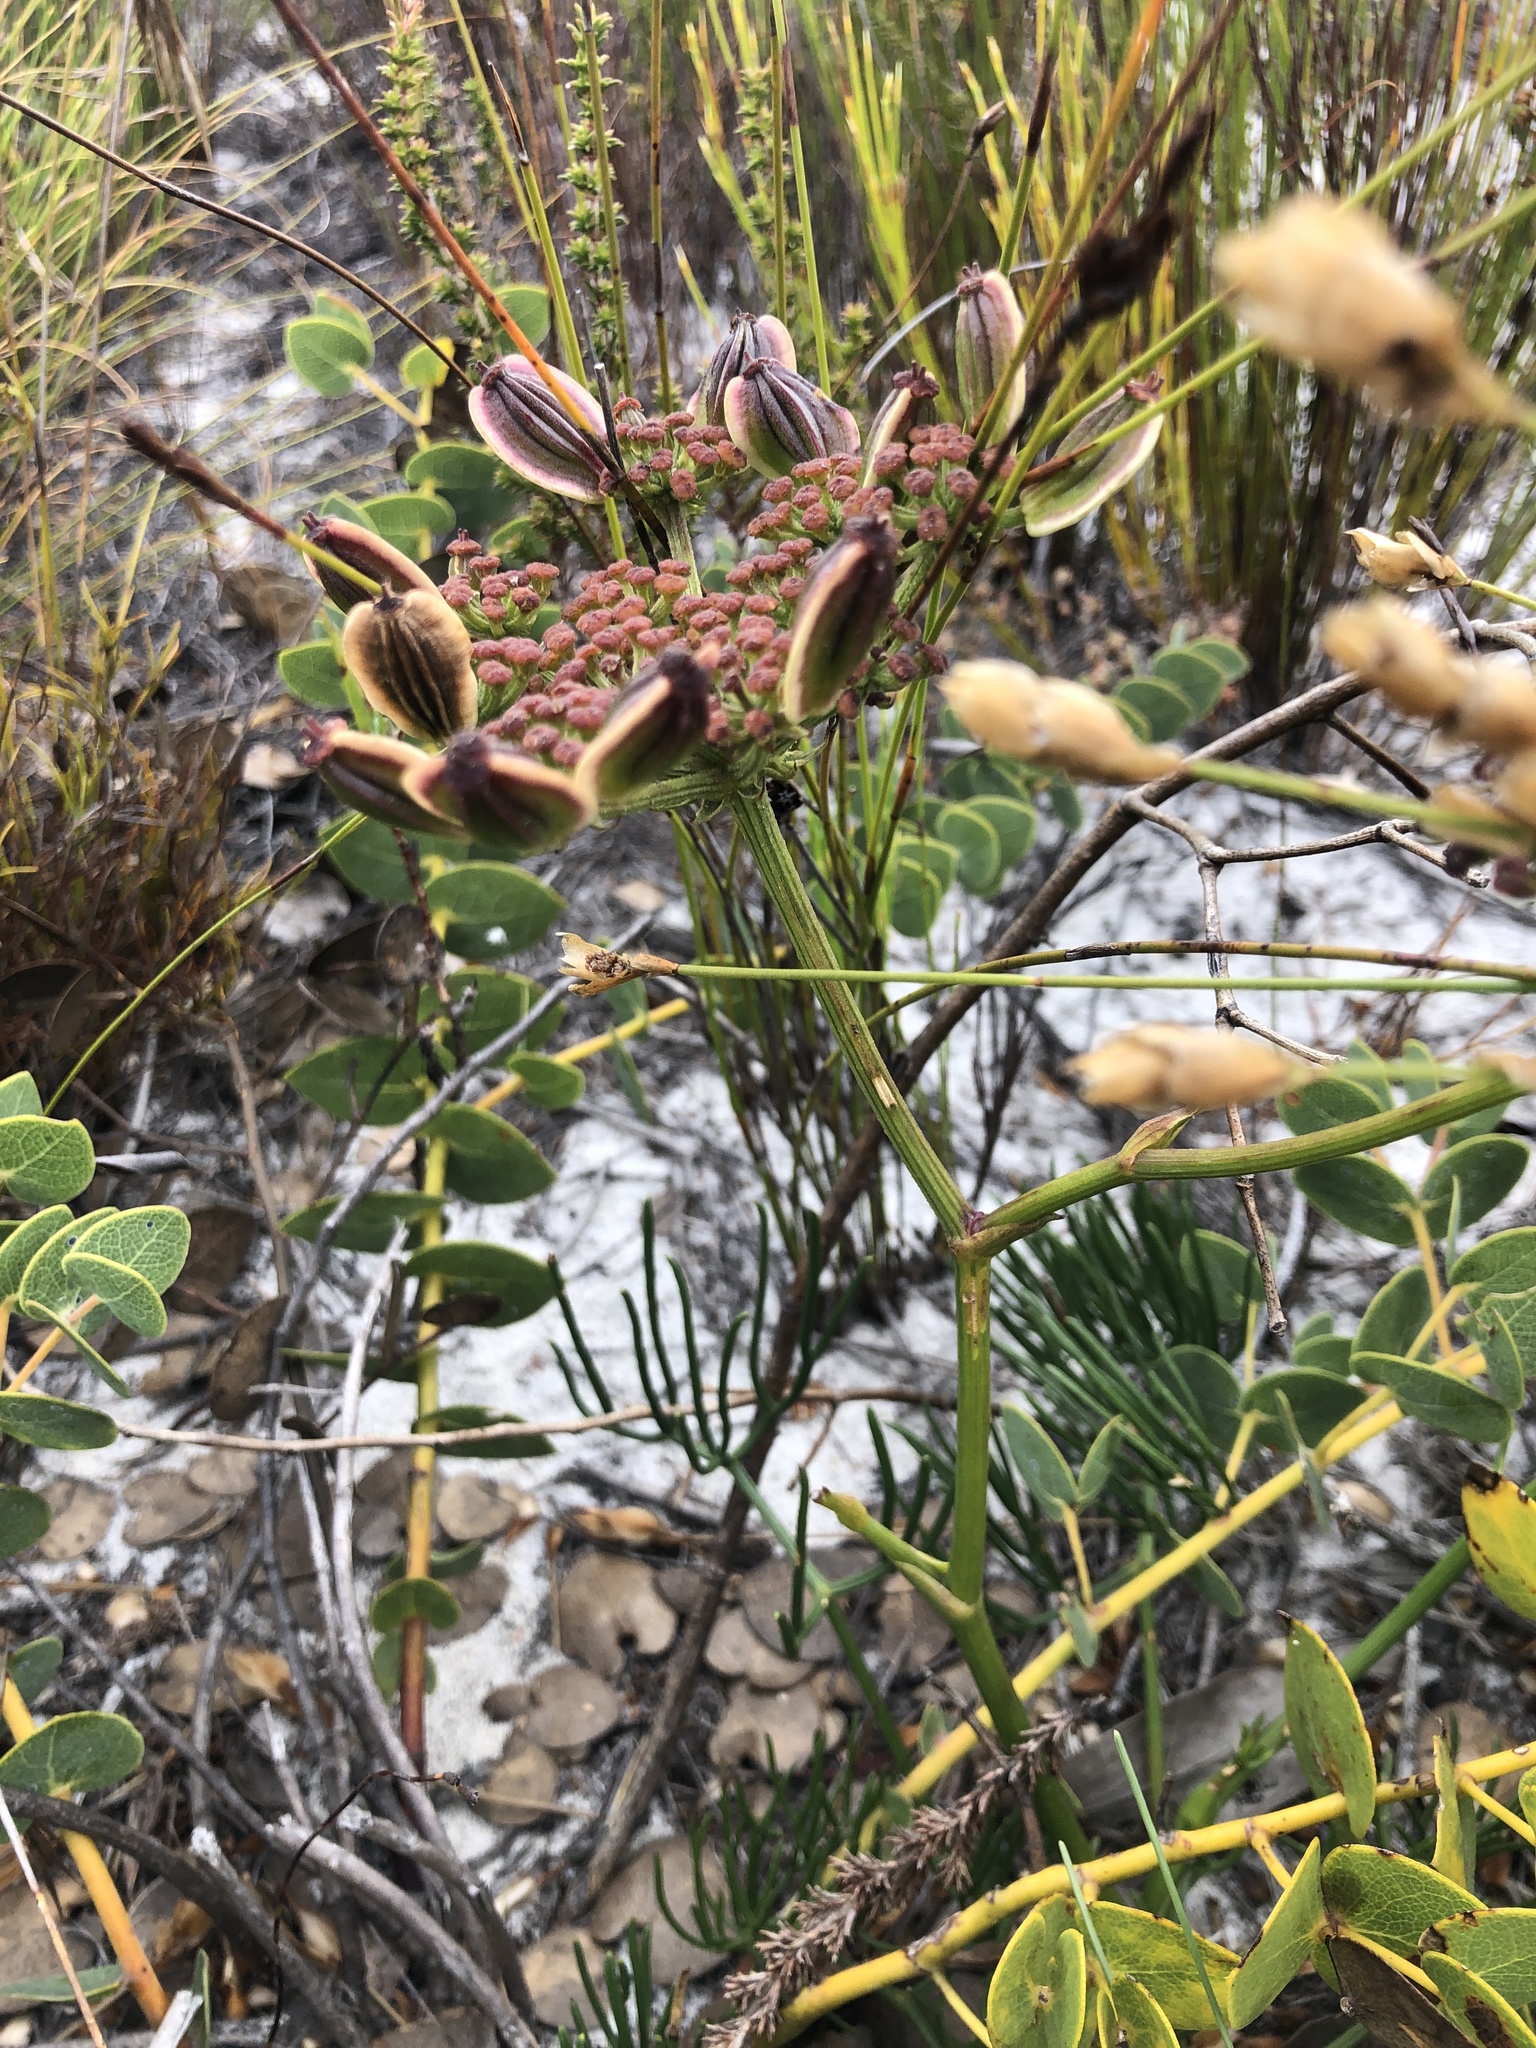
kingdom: Plantae
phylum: Tracheophyta
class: Magnoliopsida
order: Apiales
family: Apiaceae
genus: Nanobubon
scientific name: Nanobubon capillaceum
